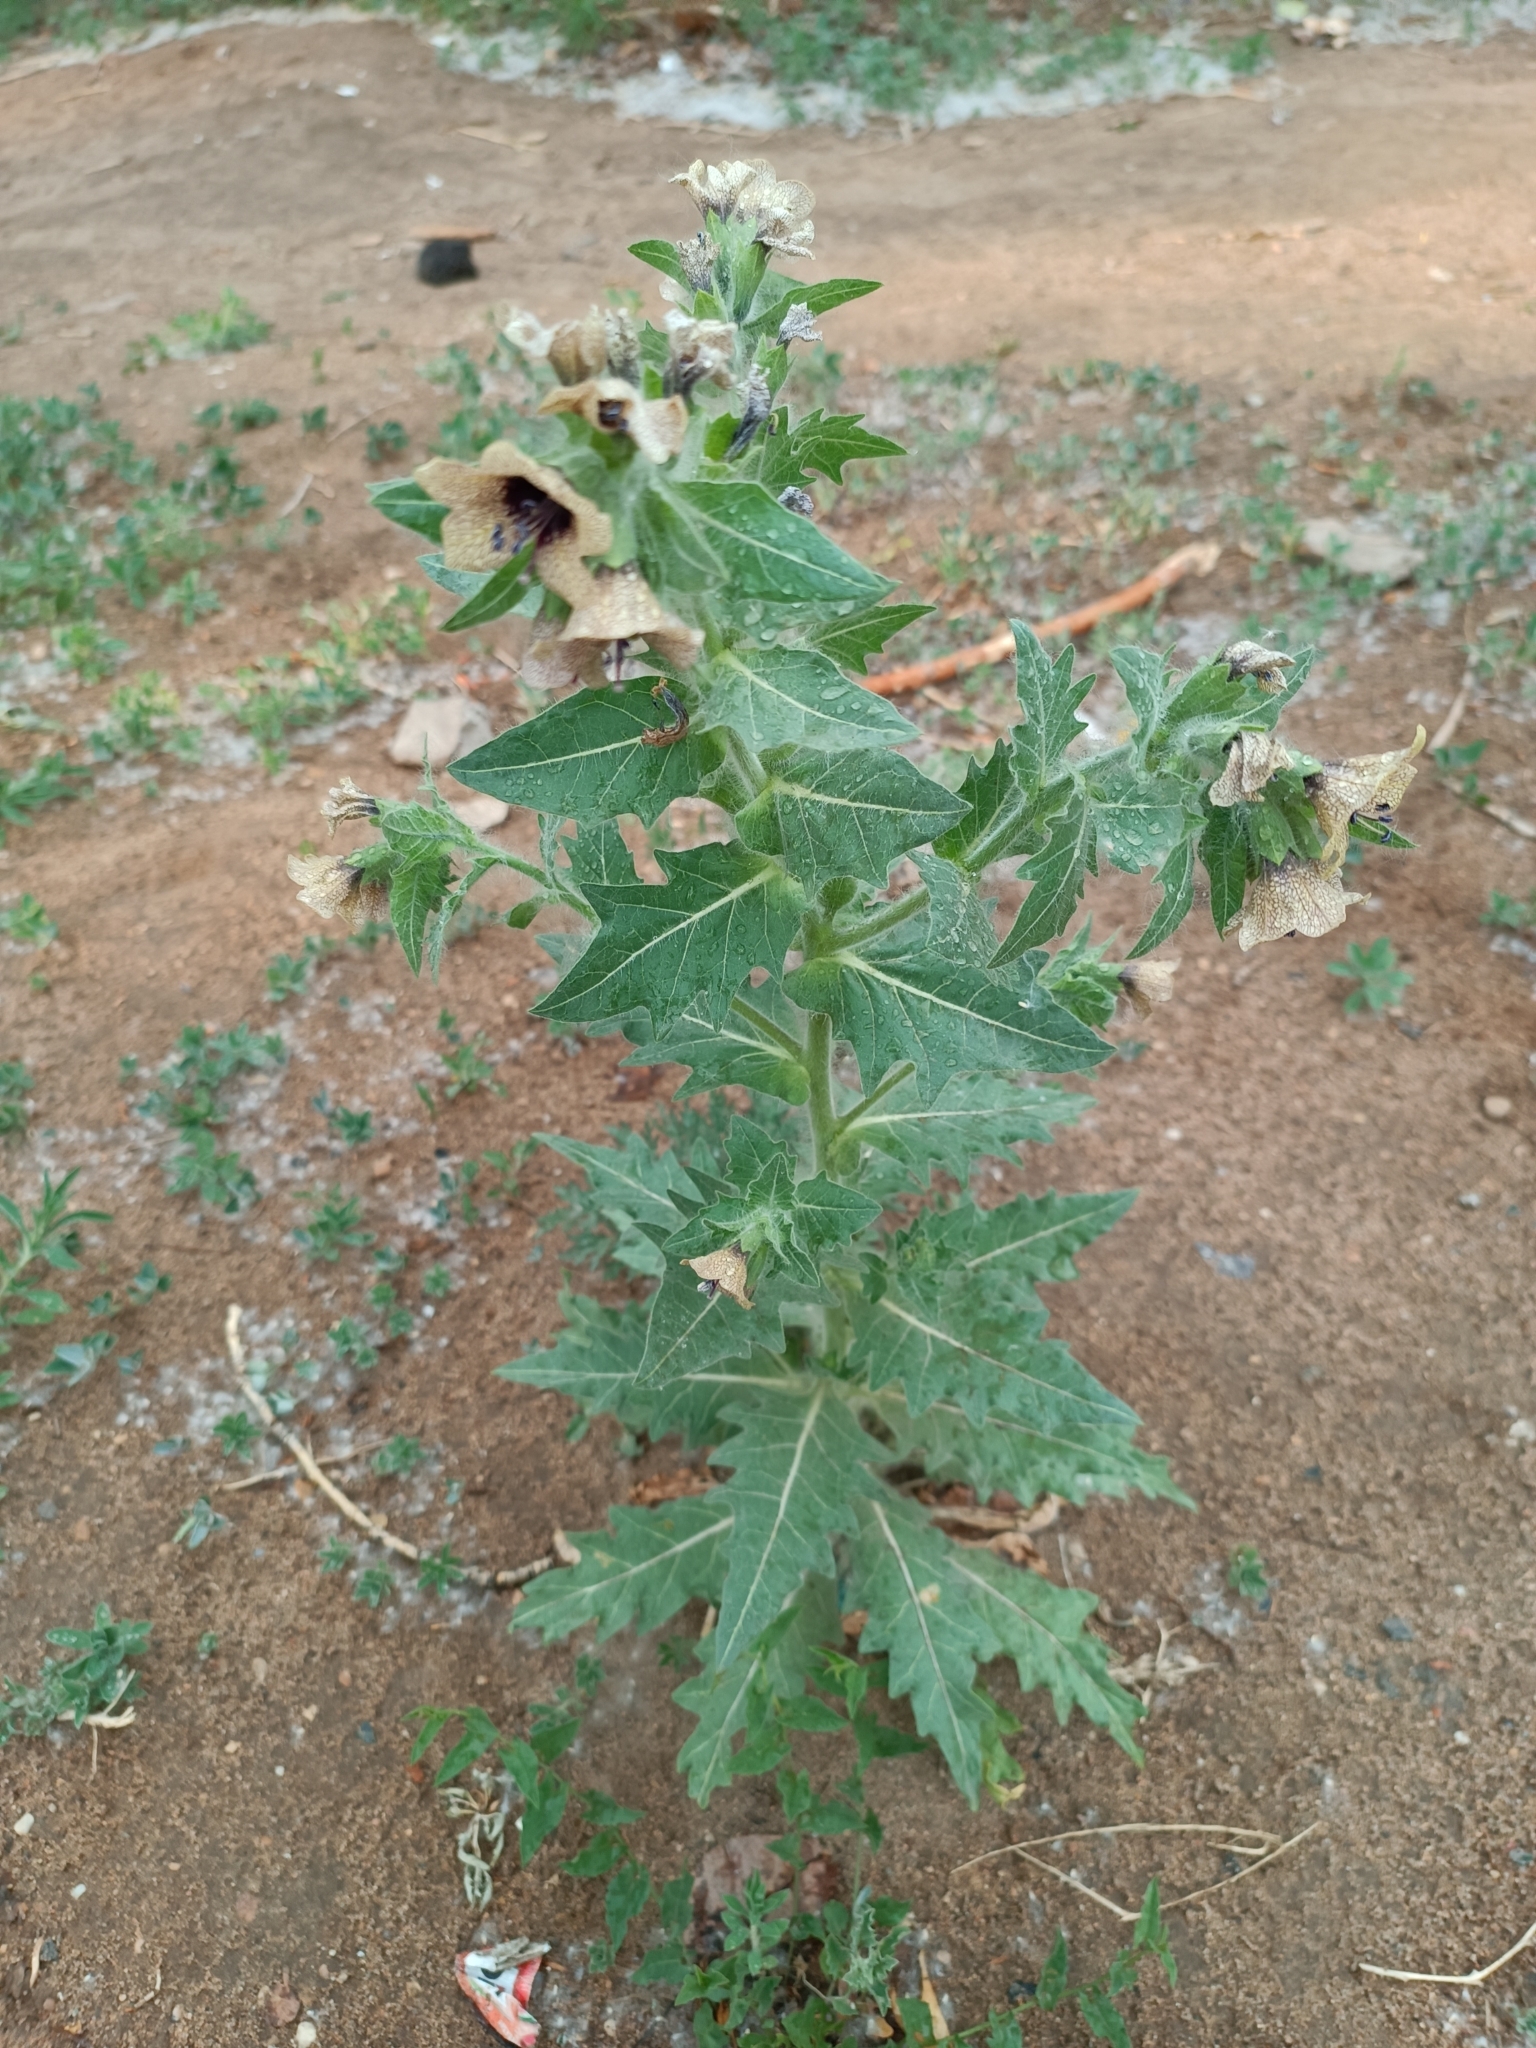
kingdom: Plantae
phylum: Tracheophyta
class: Magnoliopsida
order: Solanales
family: Solanaceae
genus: Hyoscyamus
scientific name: Hyoscyamus niger
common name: Henbane
